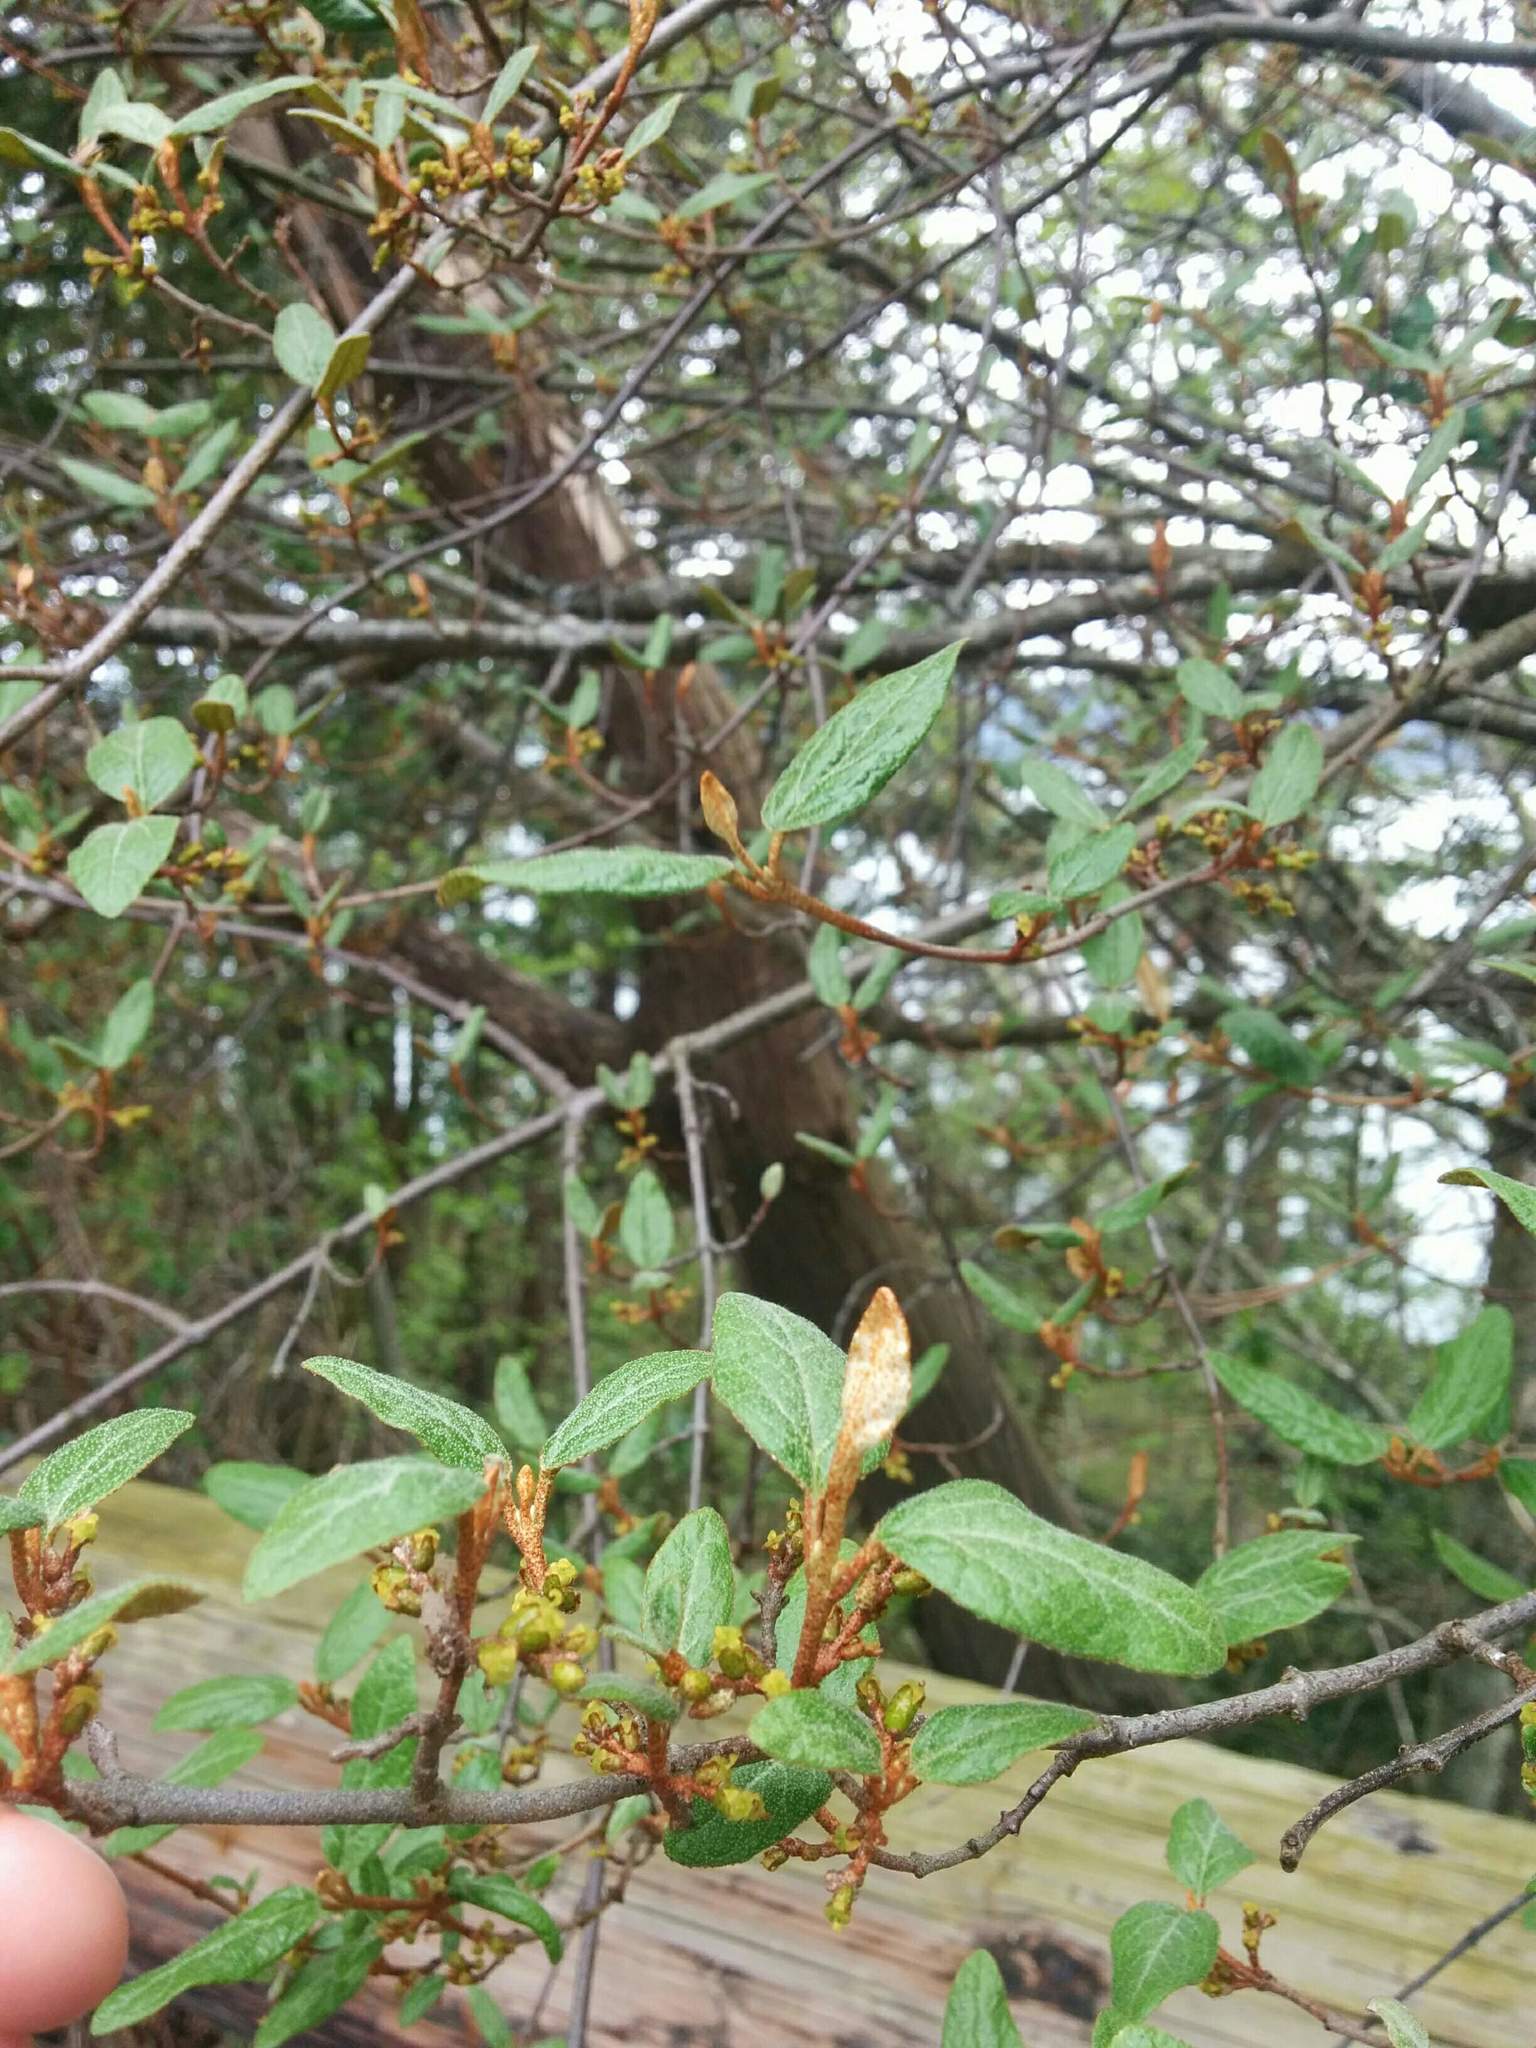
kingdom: Plantae
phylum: Tracheophyta
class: Magnoliopsida
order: Rosales
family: Elaeagnaceae
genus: Shepherdia
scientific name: Shepherdia canadensis
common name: Soapberry
